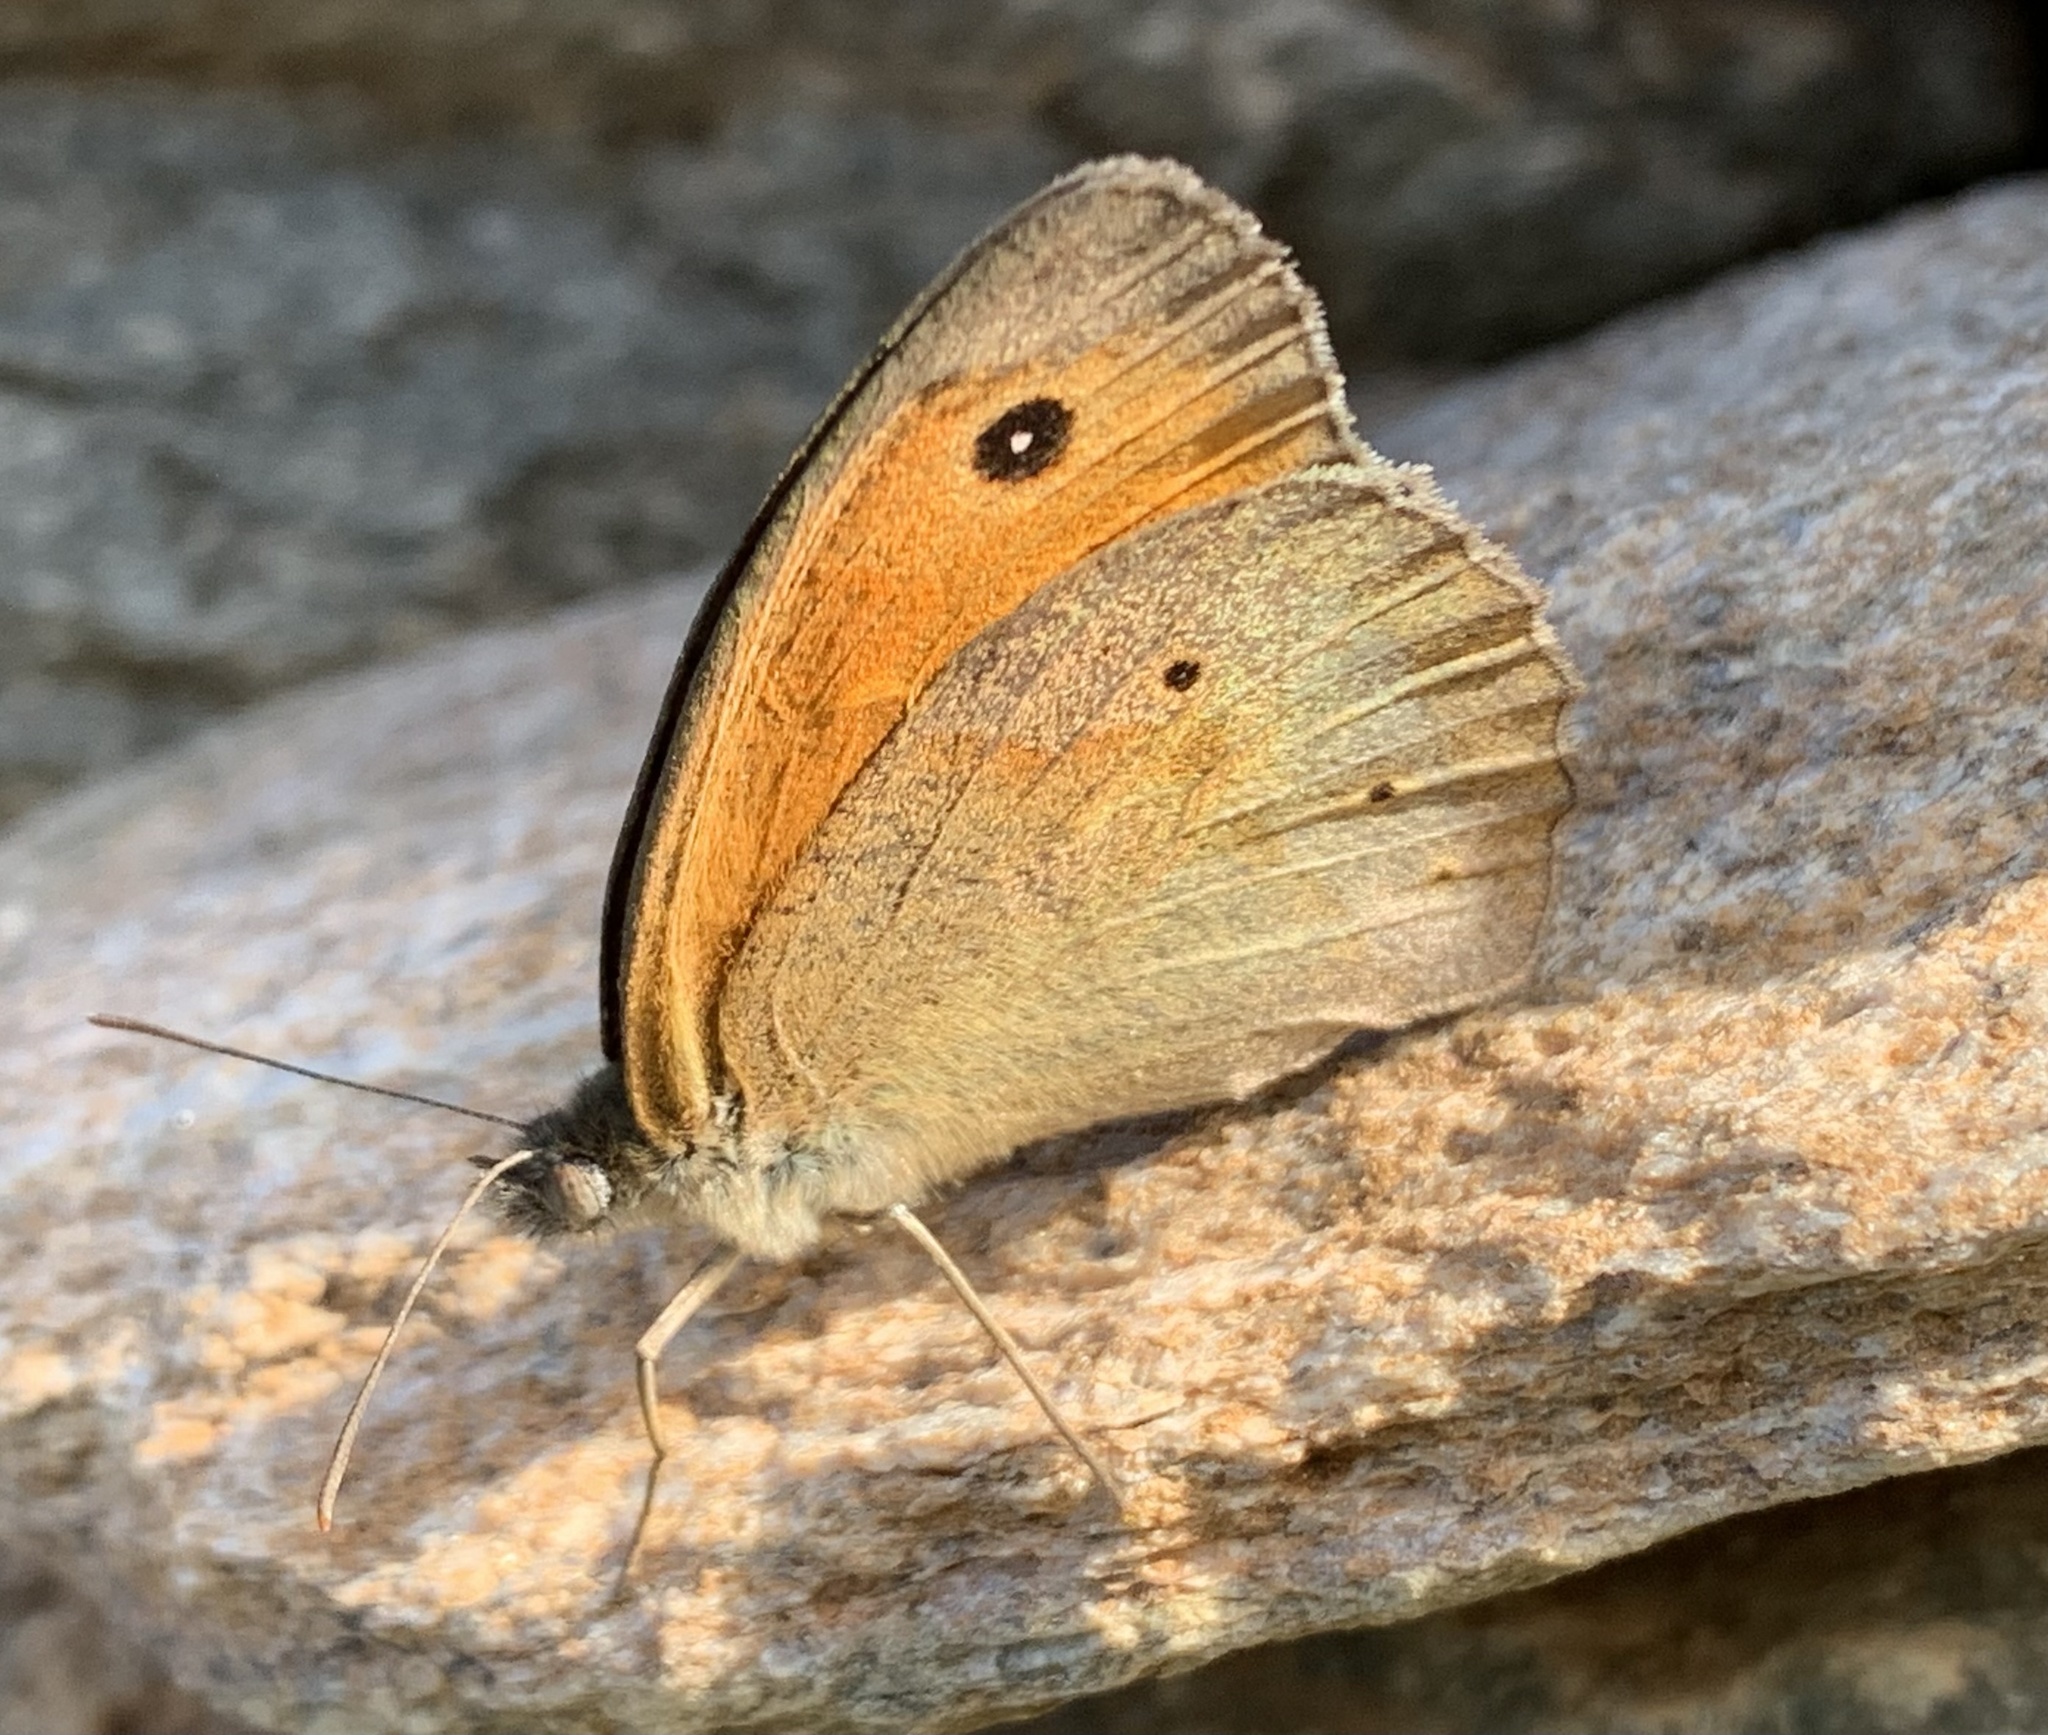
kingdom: Animalia
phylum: Arthropoda
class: Insecta
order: Lepidoptera
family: Nymphalidae
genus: Maniola
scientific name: Maniola jurtina
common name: Meadow brown
